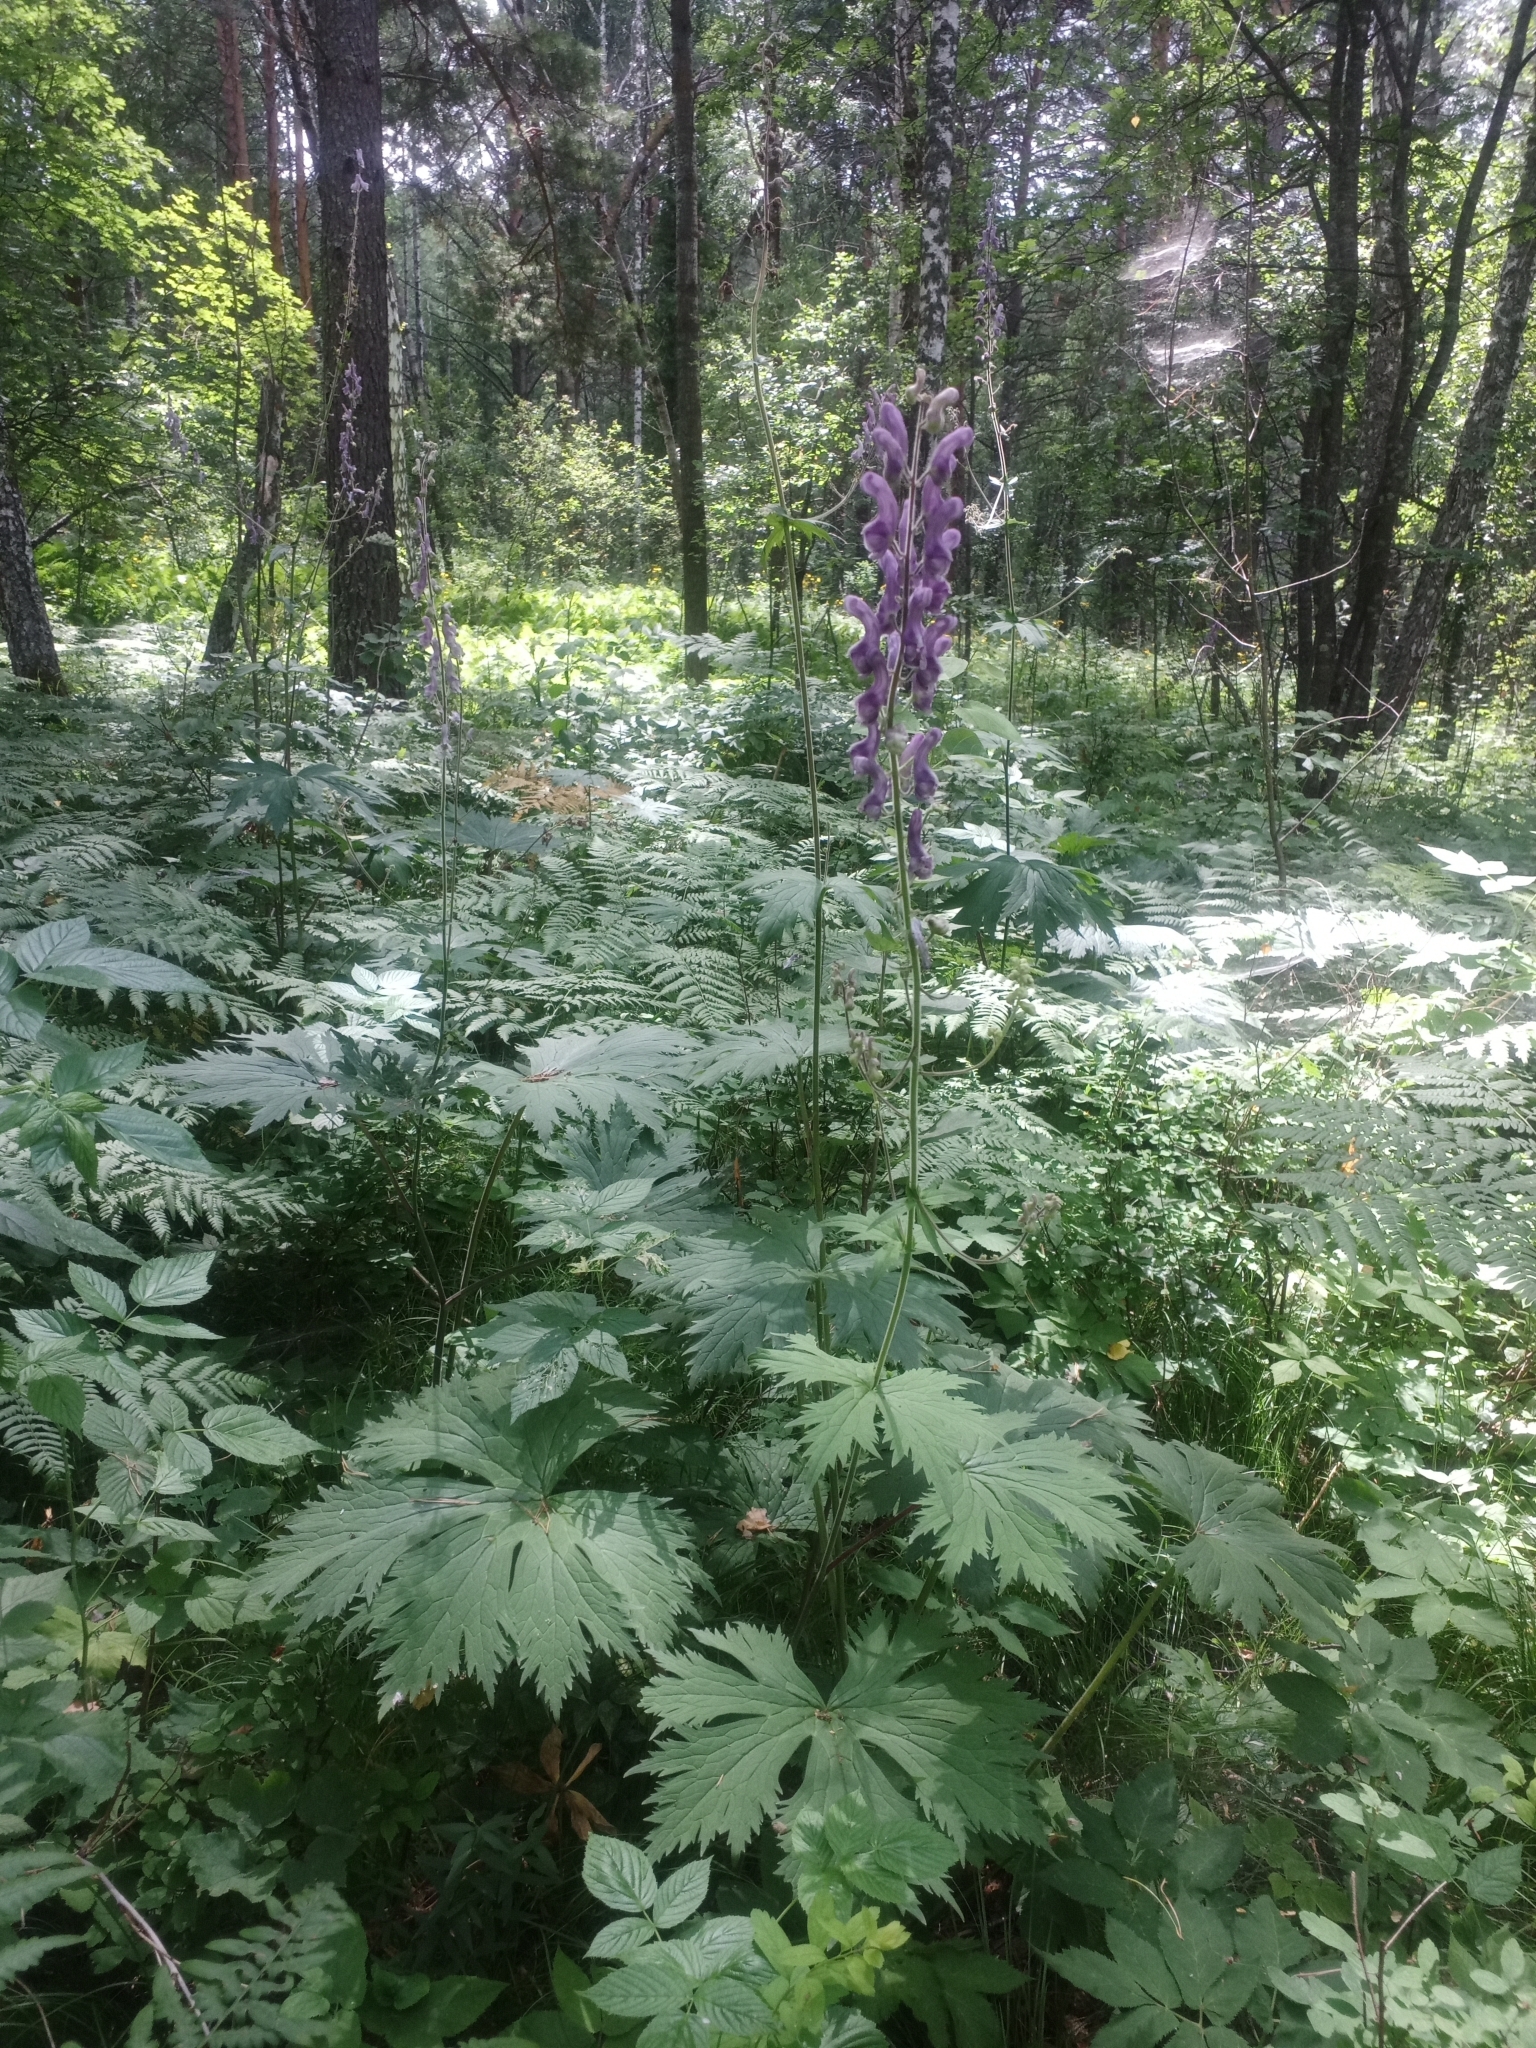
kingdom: Plantae
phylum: Tracheophyta
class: Magnoliopsida
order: Ranunculales
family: Ranunculaceae
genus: Aconitum
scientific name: Aconitum septentrionale
